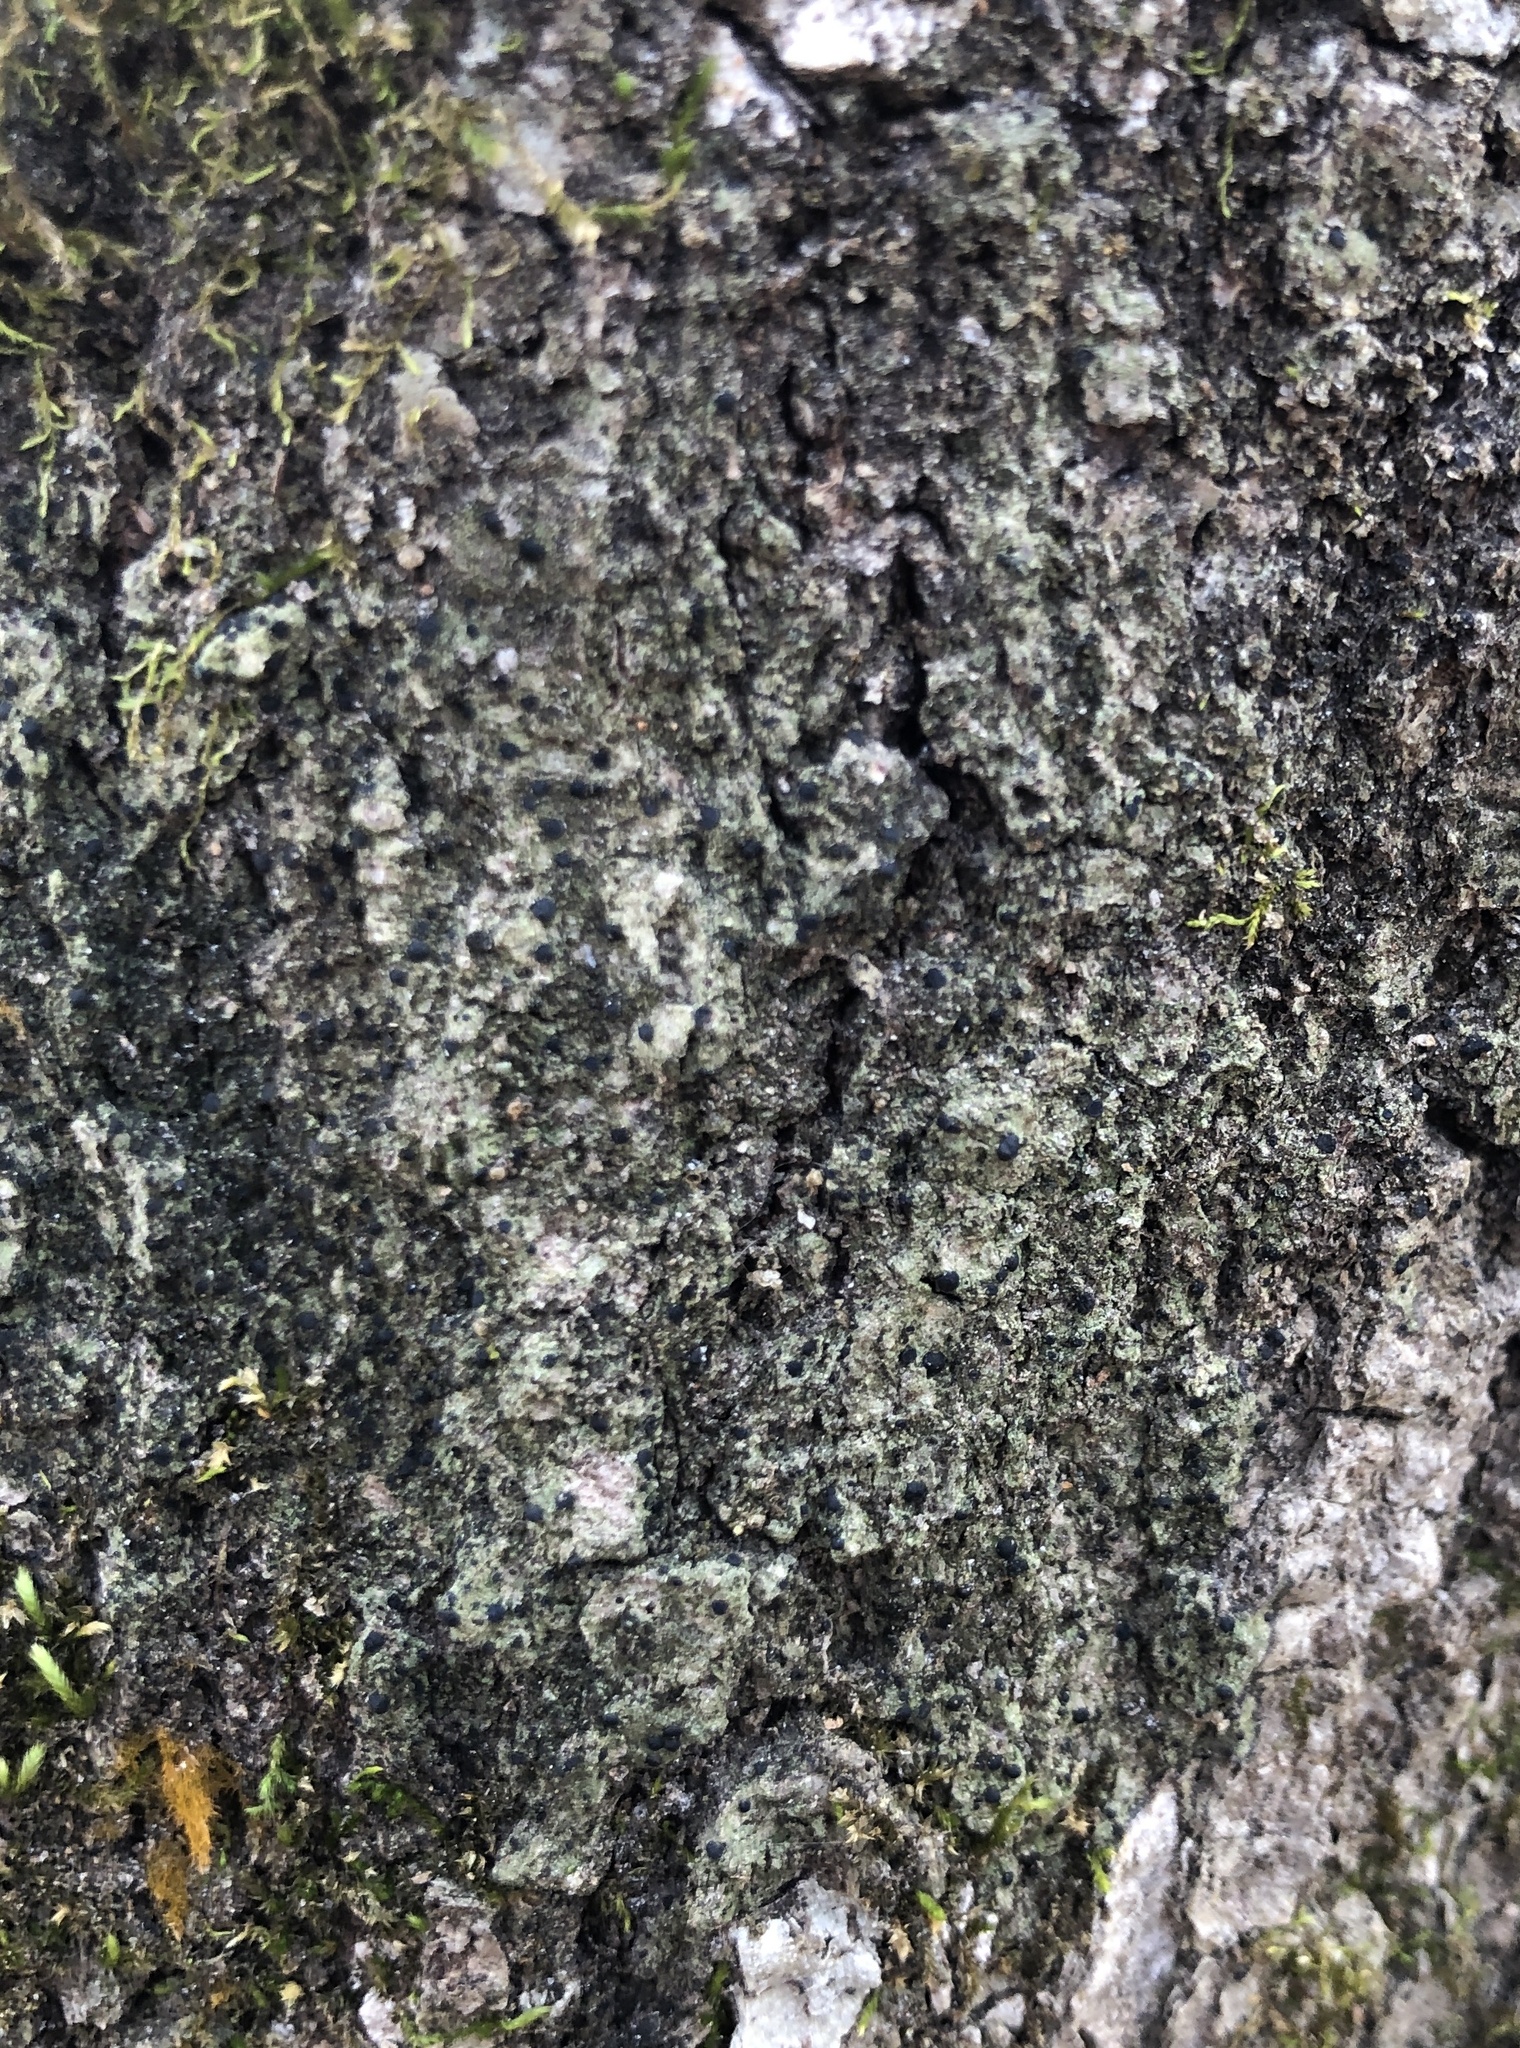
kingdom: Fungi
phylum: Ascomycota
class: Lecanoromycetes
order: Lecanorales
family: Ramalinaceae
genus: Bacidia
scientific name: Bacidia schweinitzii
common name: Surprise lichen
